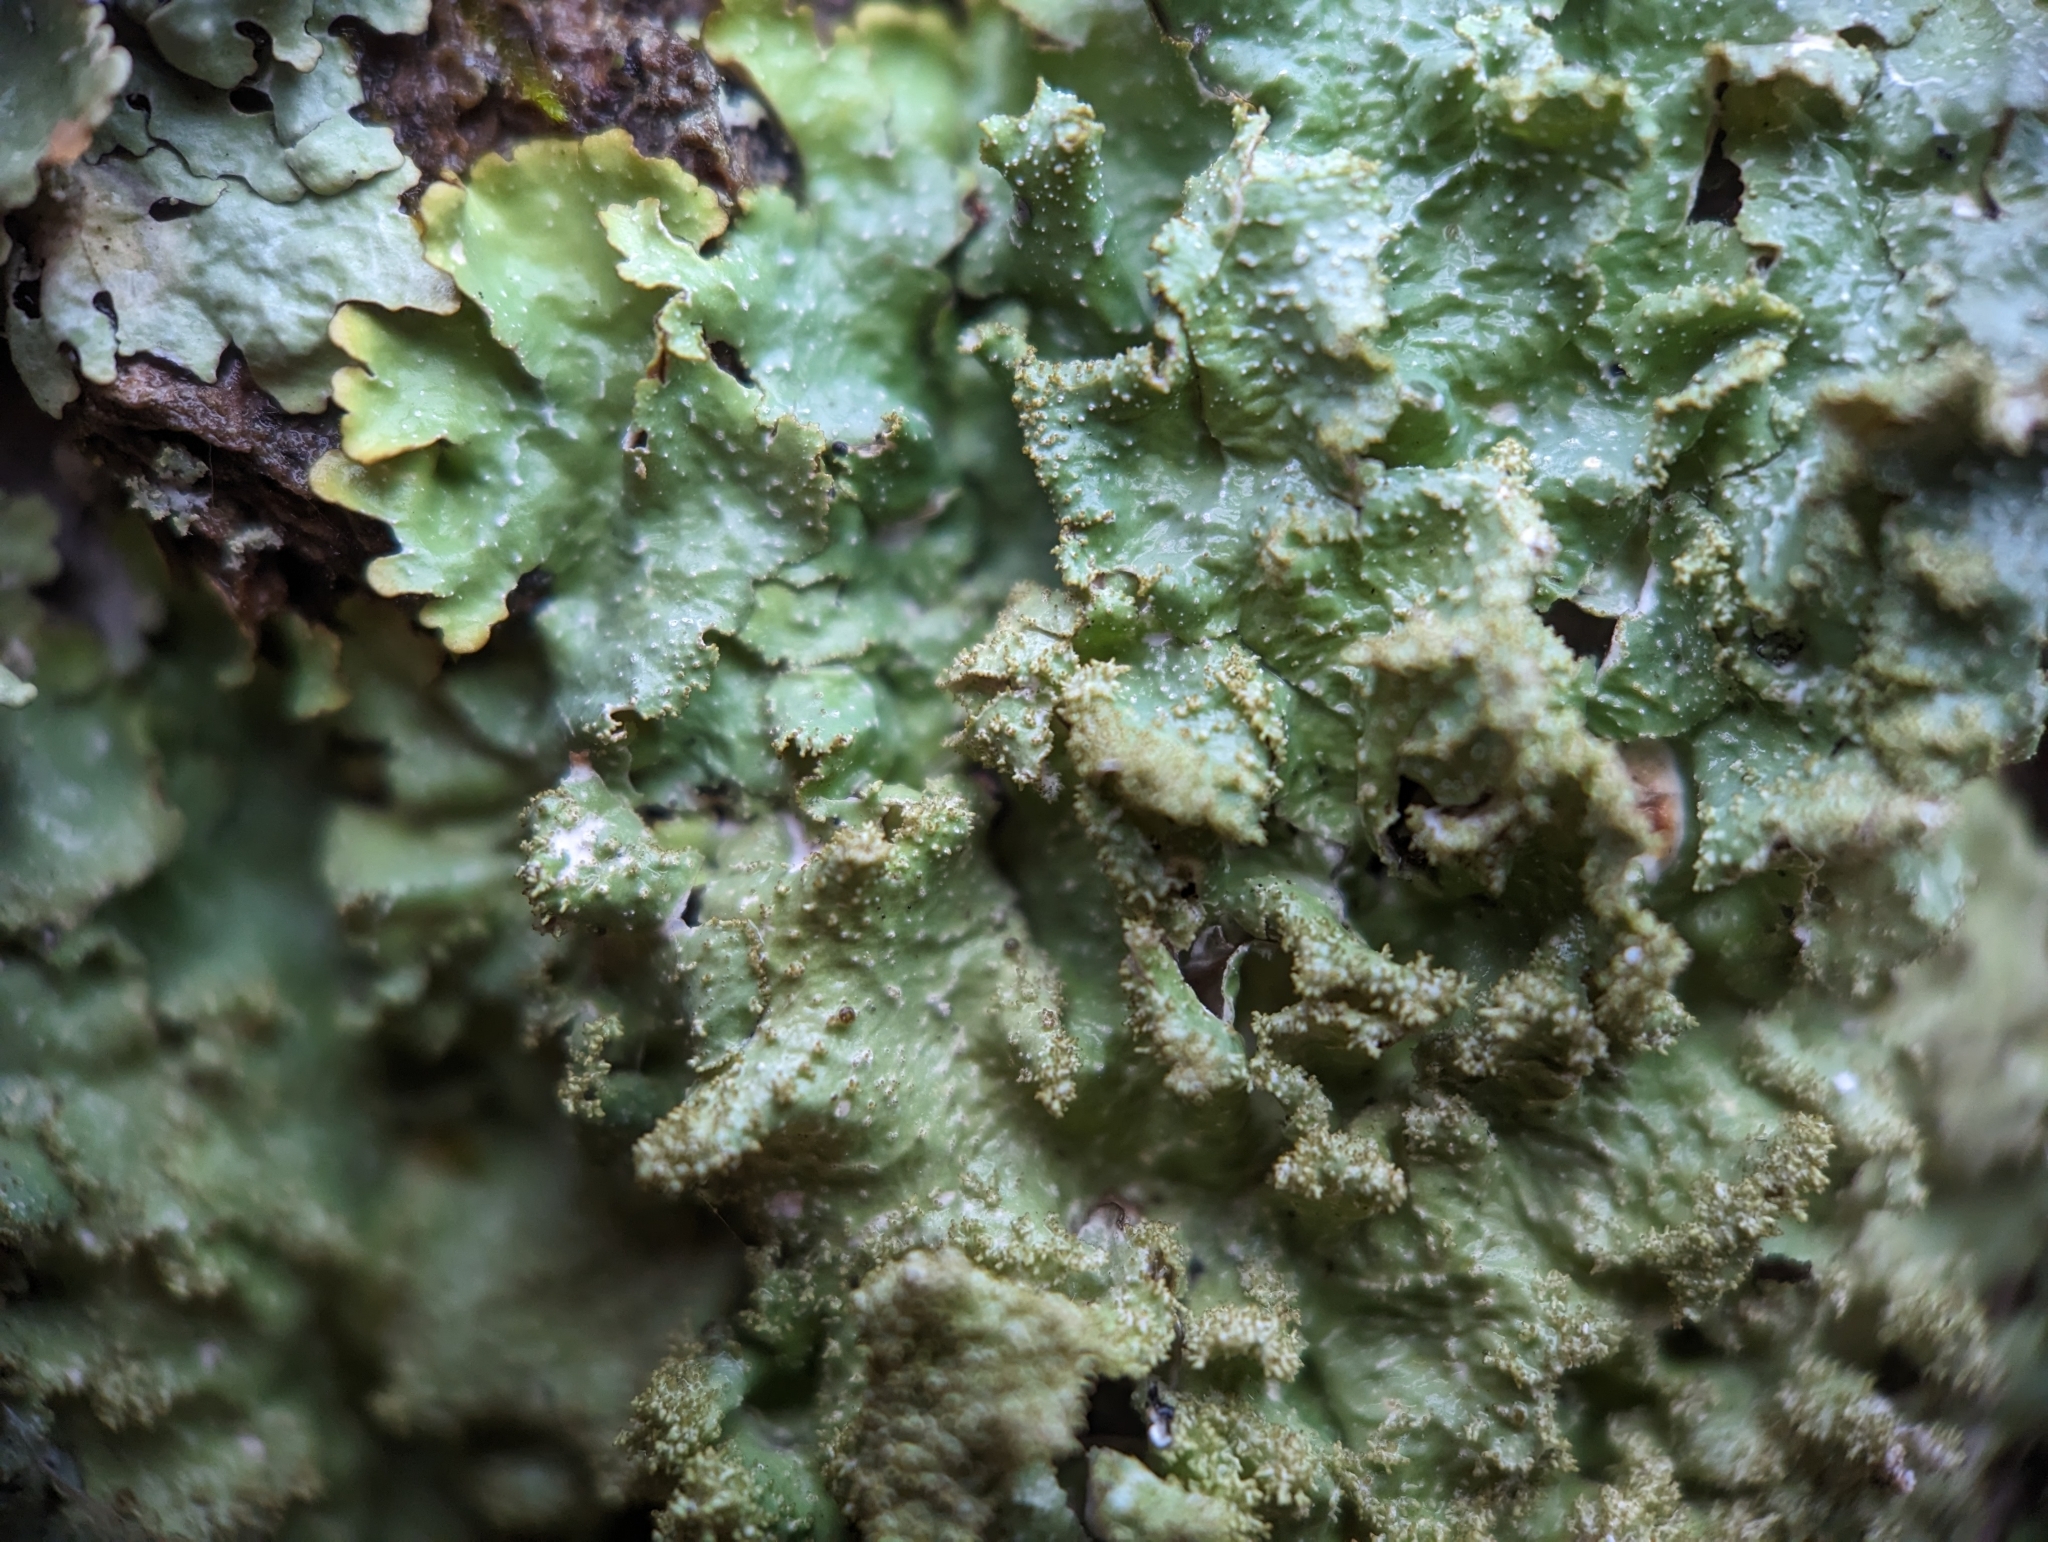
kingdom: Fungi
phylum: Ascomycota
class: Lecanoromycetes
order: Lecanorales
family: Parmeliaceae
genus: Punctelia
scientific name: Punctelia rudecta
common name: Rough speckled shield lichen
